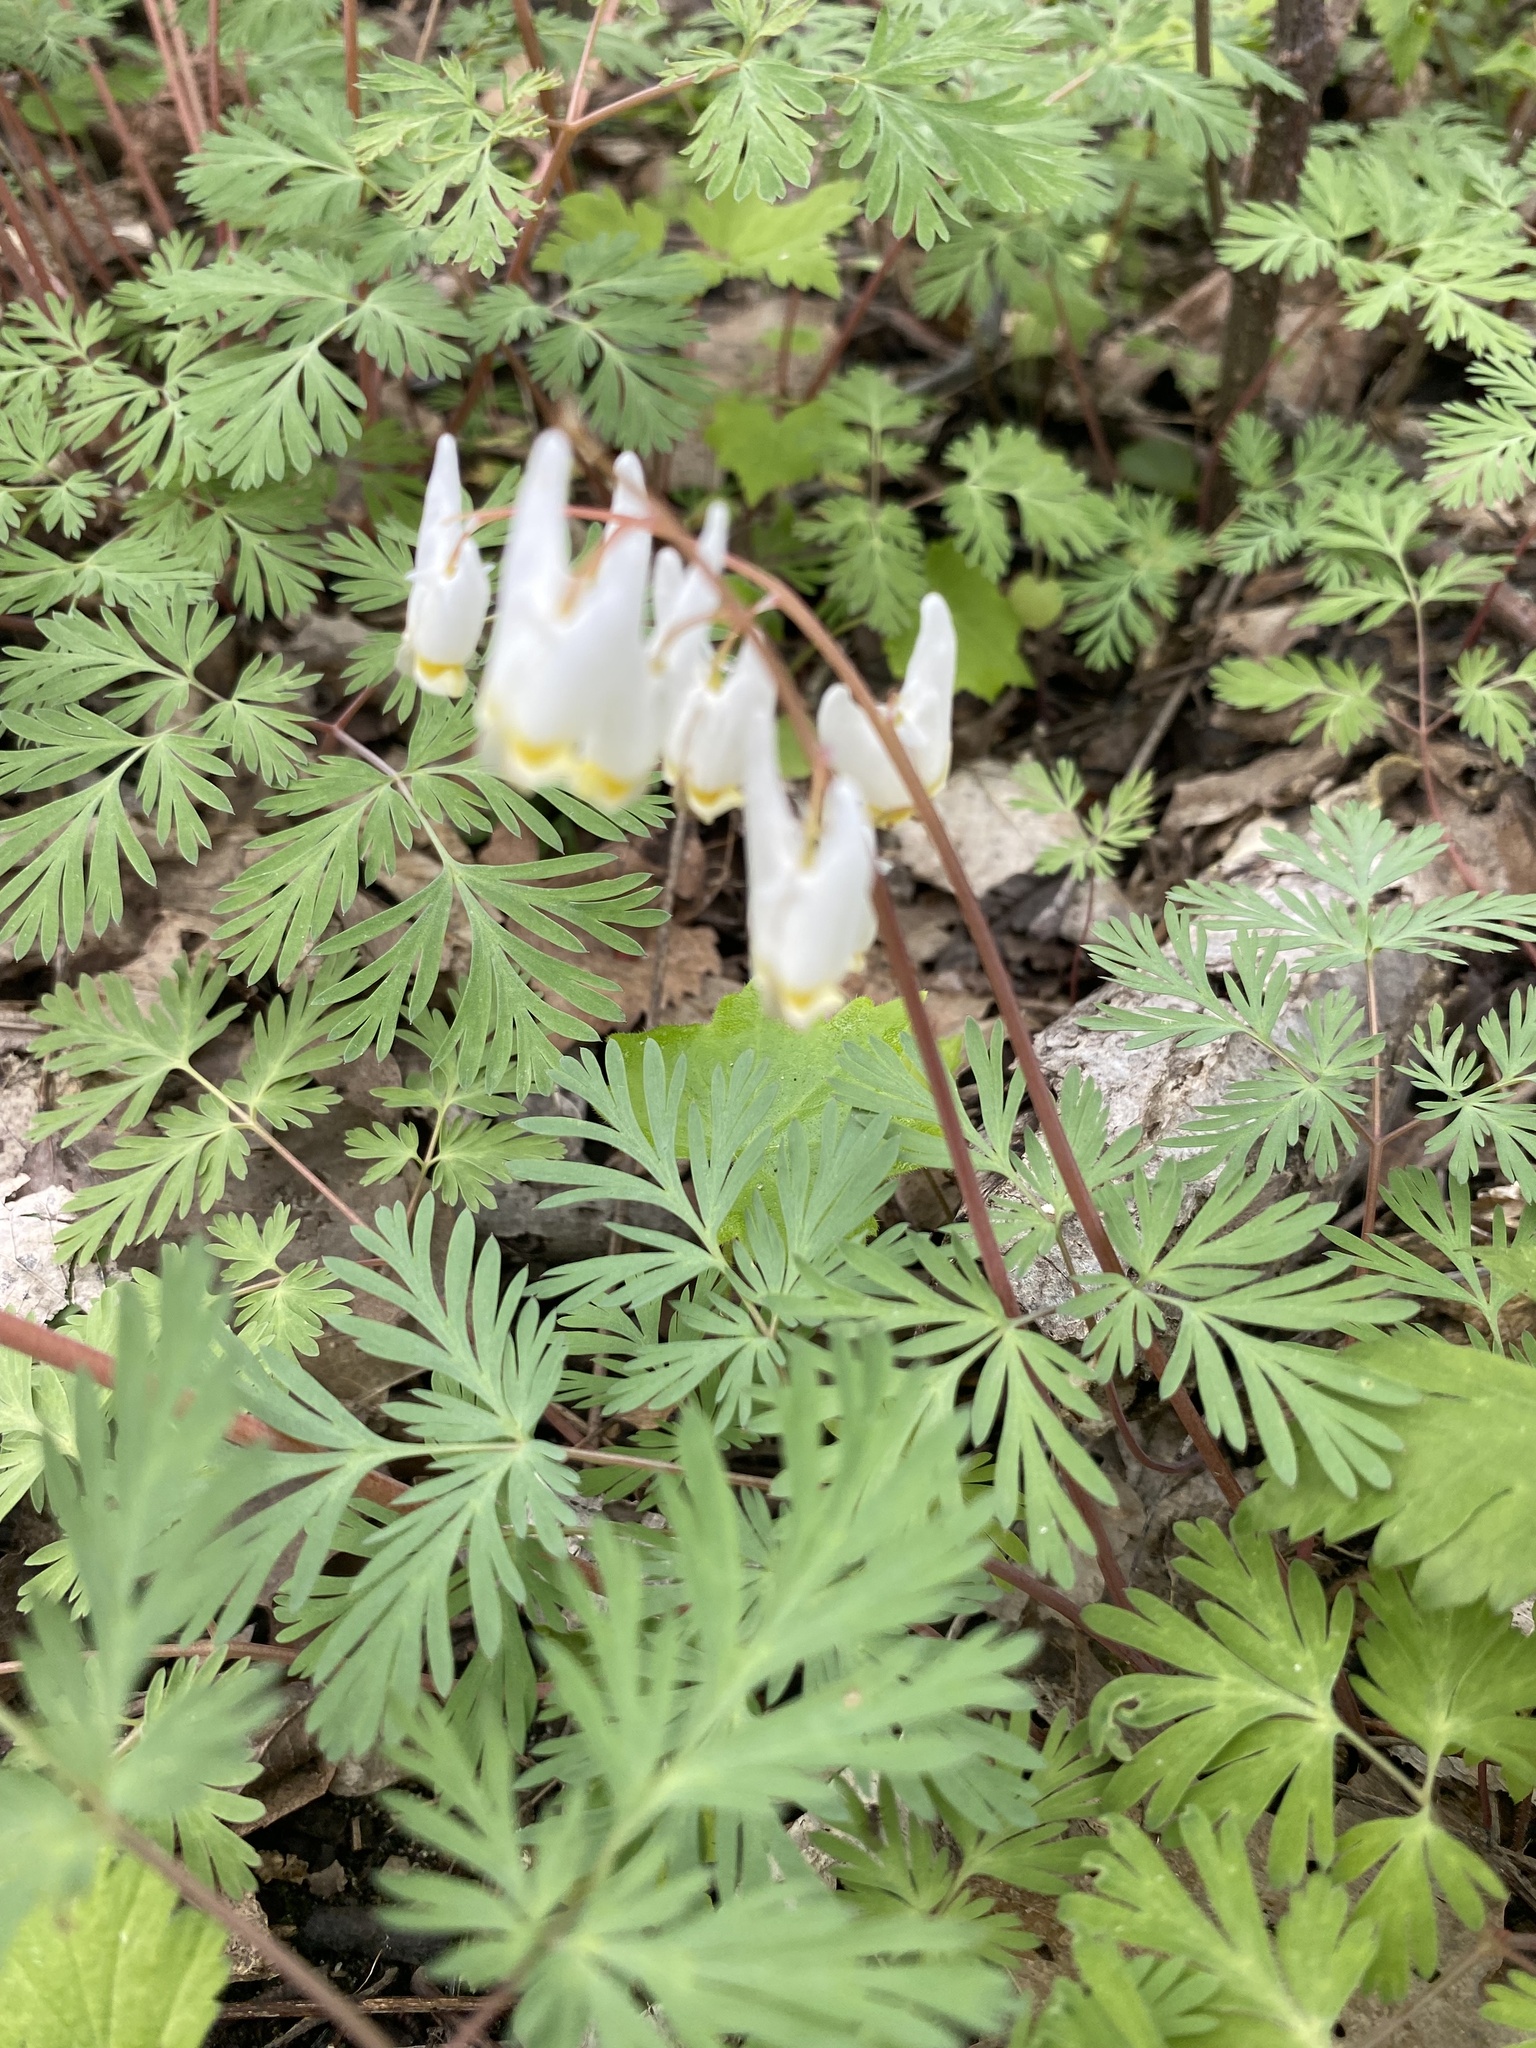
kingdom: Plantae
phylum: Tracheophyta
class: Magnoliopsida
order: Ranunculales
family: Papaveraceae
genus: Dicentra
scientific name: Dicentra cucullaria
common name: Dutchman's breeches
